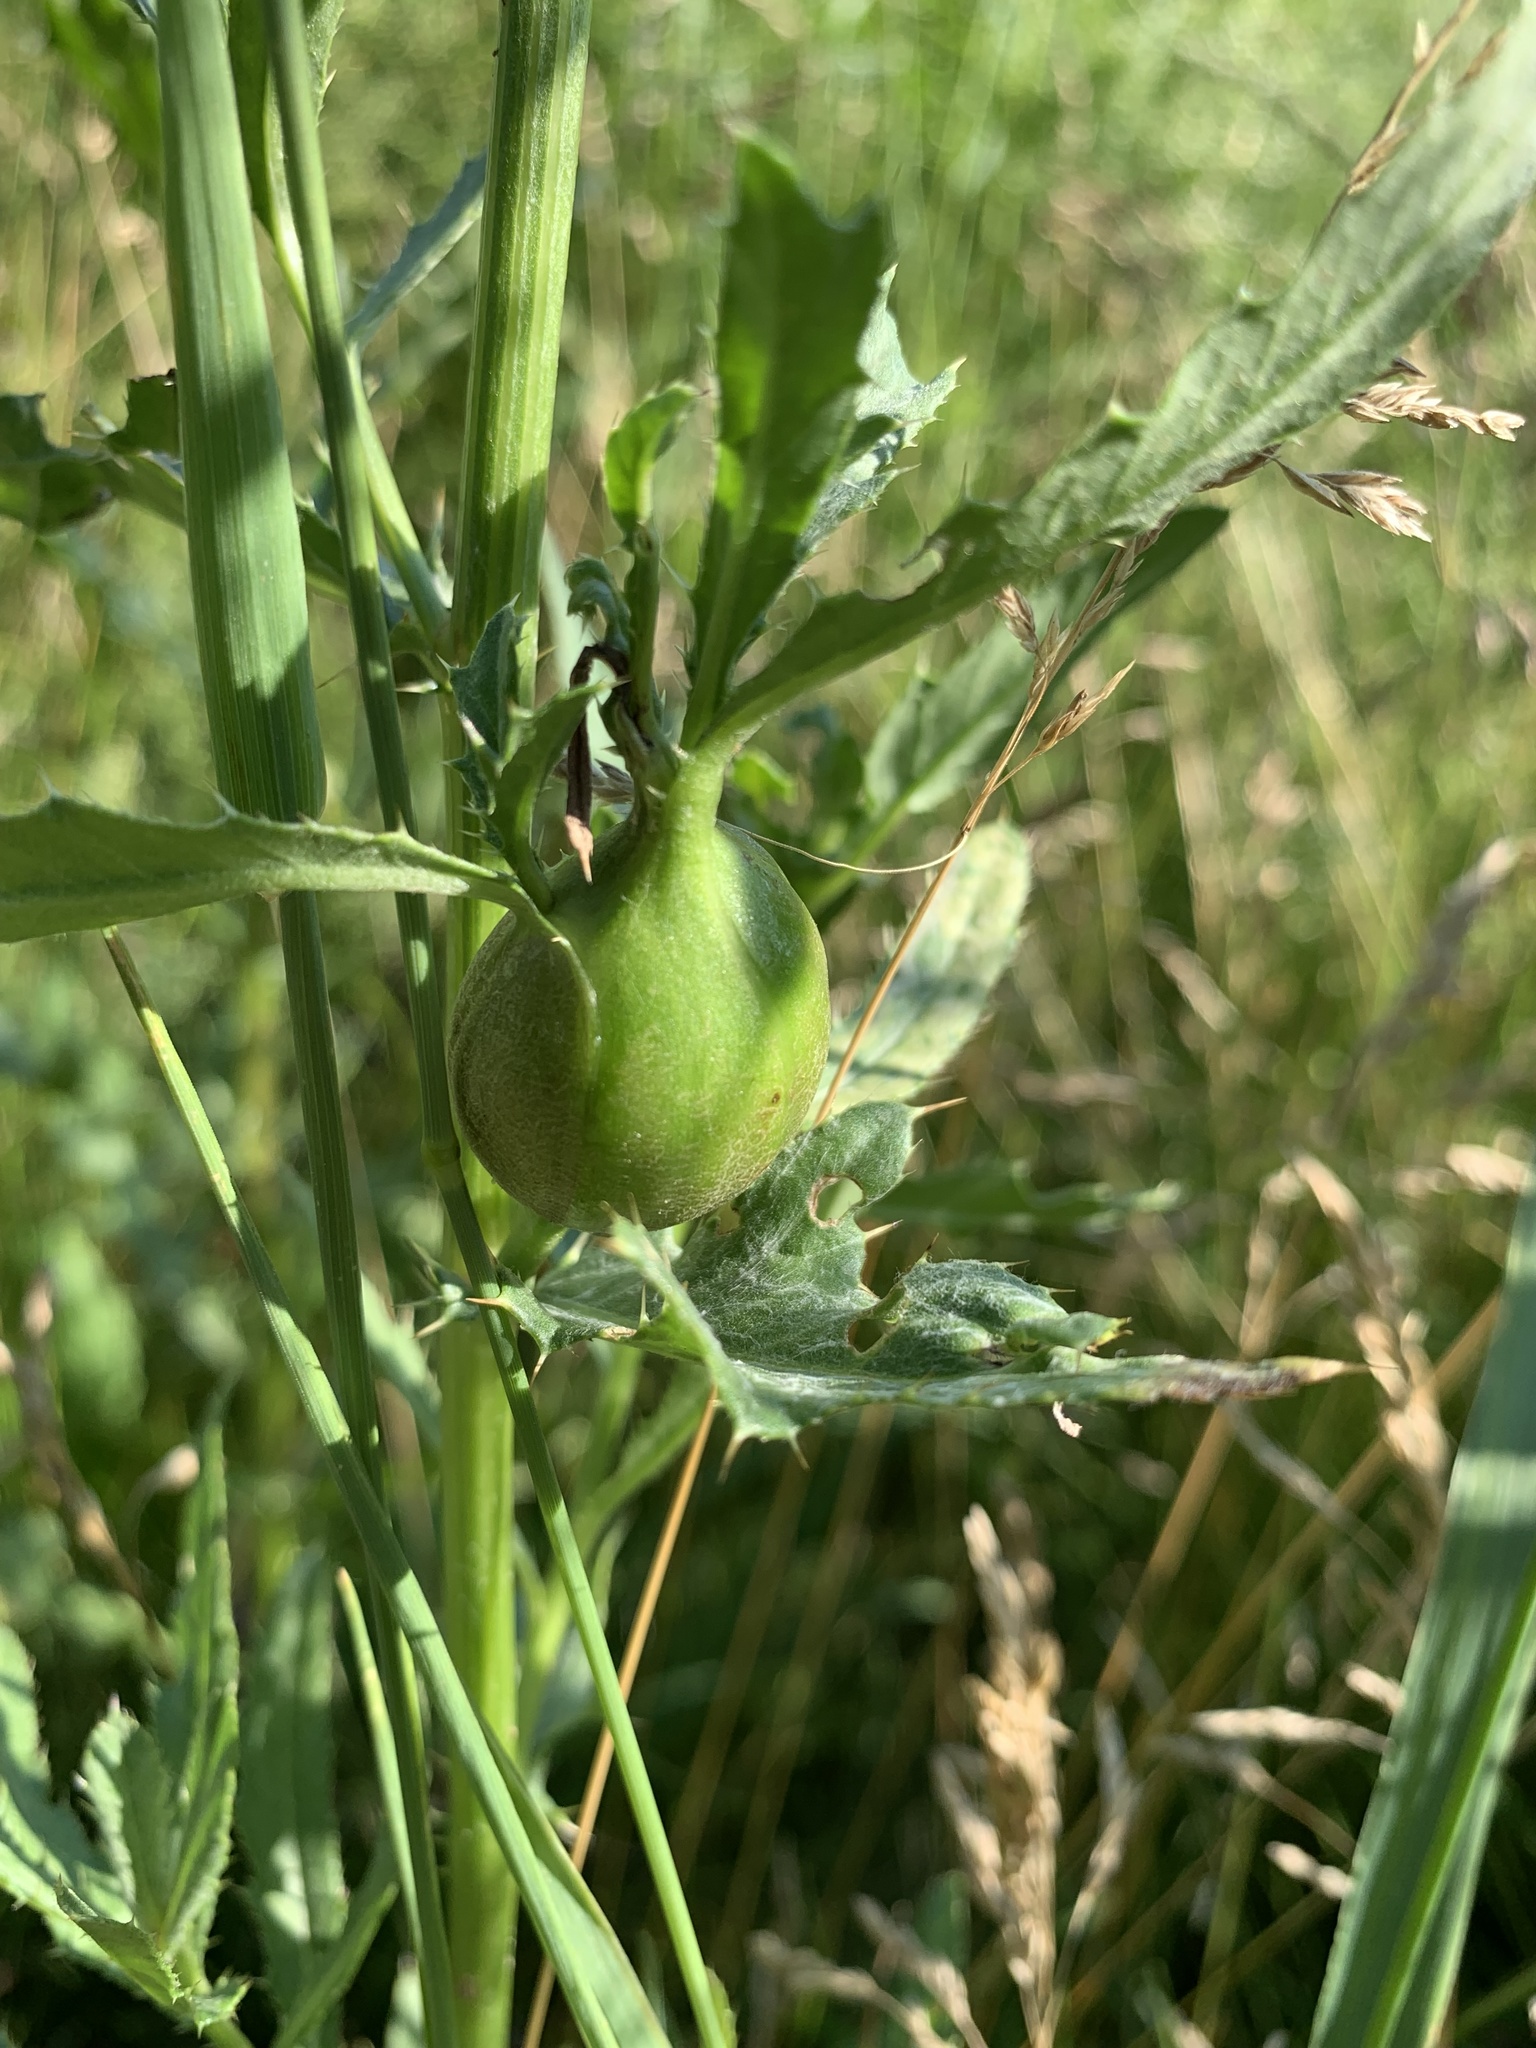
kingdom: Animalia
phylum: Arthropoda
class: Insecta
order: Diptera
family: Tephritidae
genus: Urophora
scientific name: Urophora cardui
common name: Fruit fly
